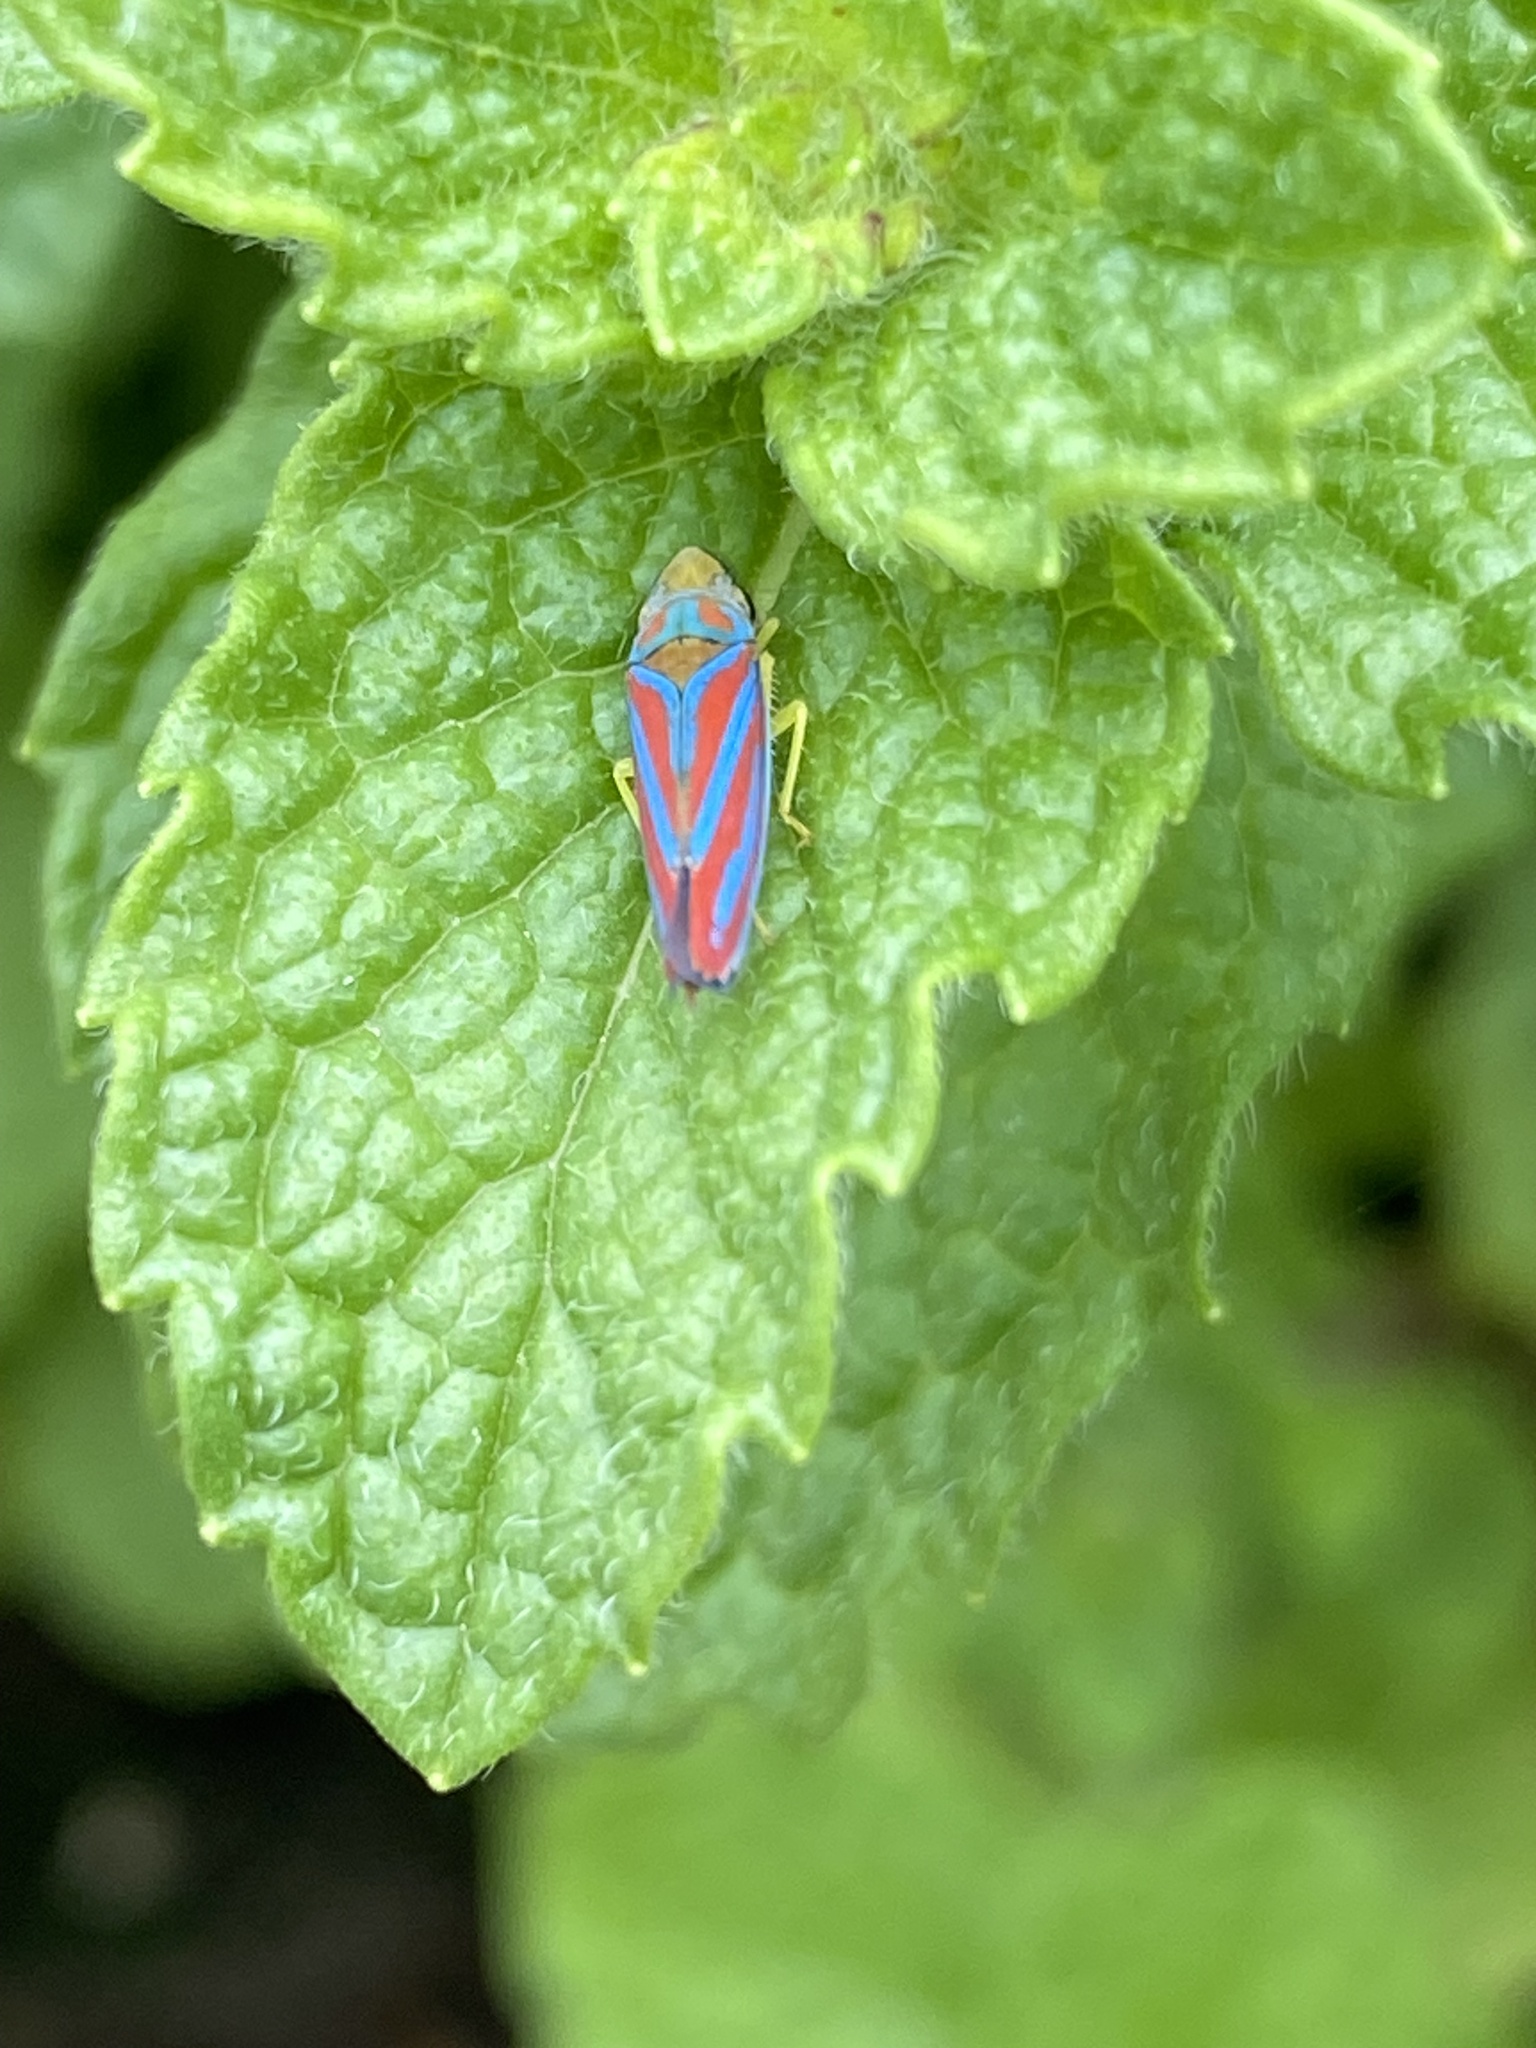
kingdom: Animalia
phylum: Arthropoda
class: Insecta
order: Hemiptera
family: Cicadellidae
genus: Graphocephala
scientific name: Graphocephala coccinea
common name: Candy-striped leafhopper
